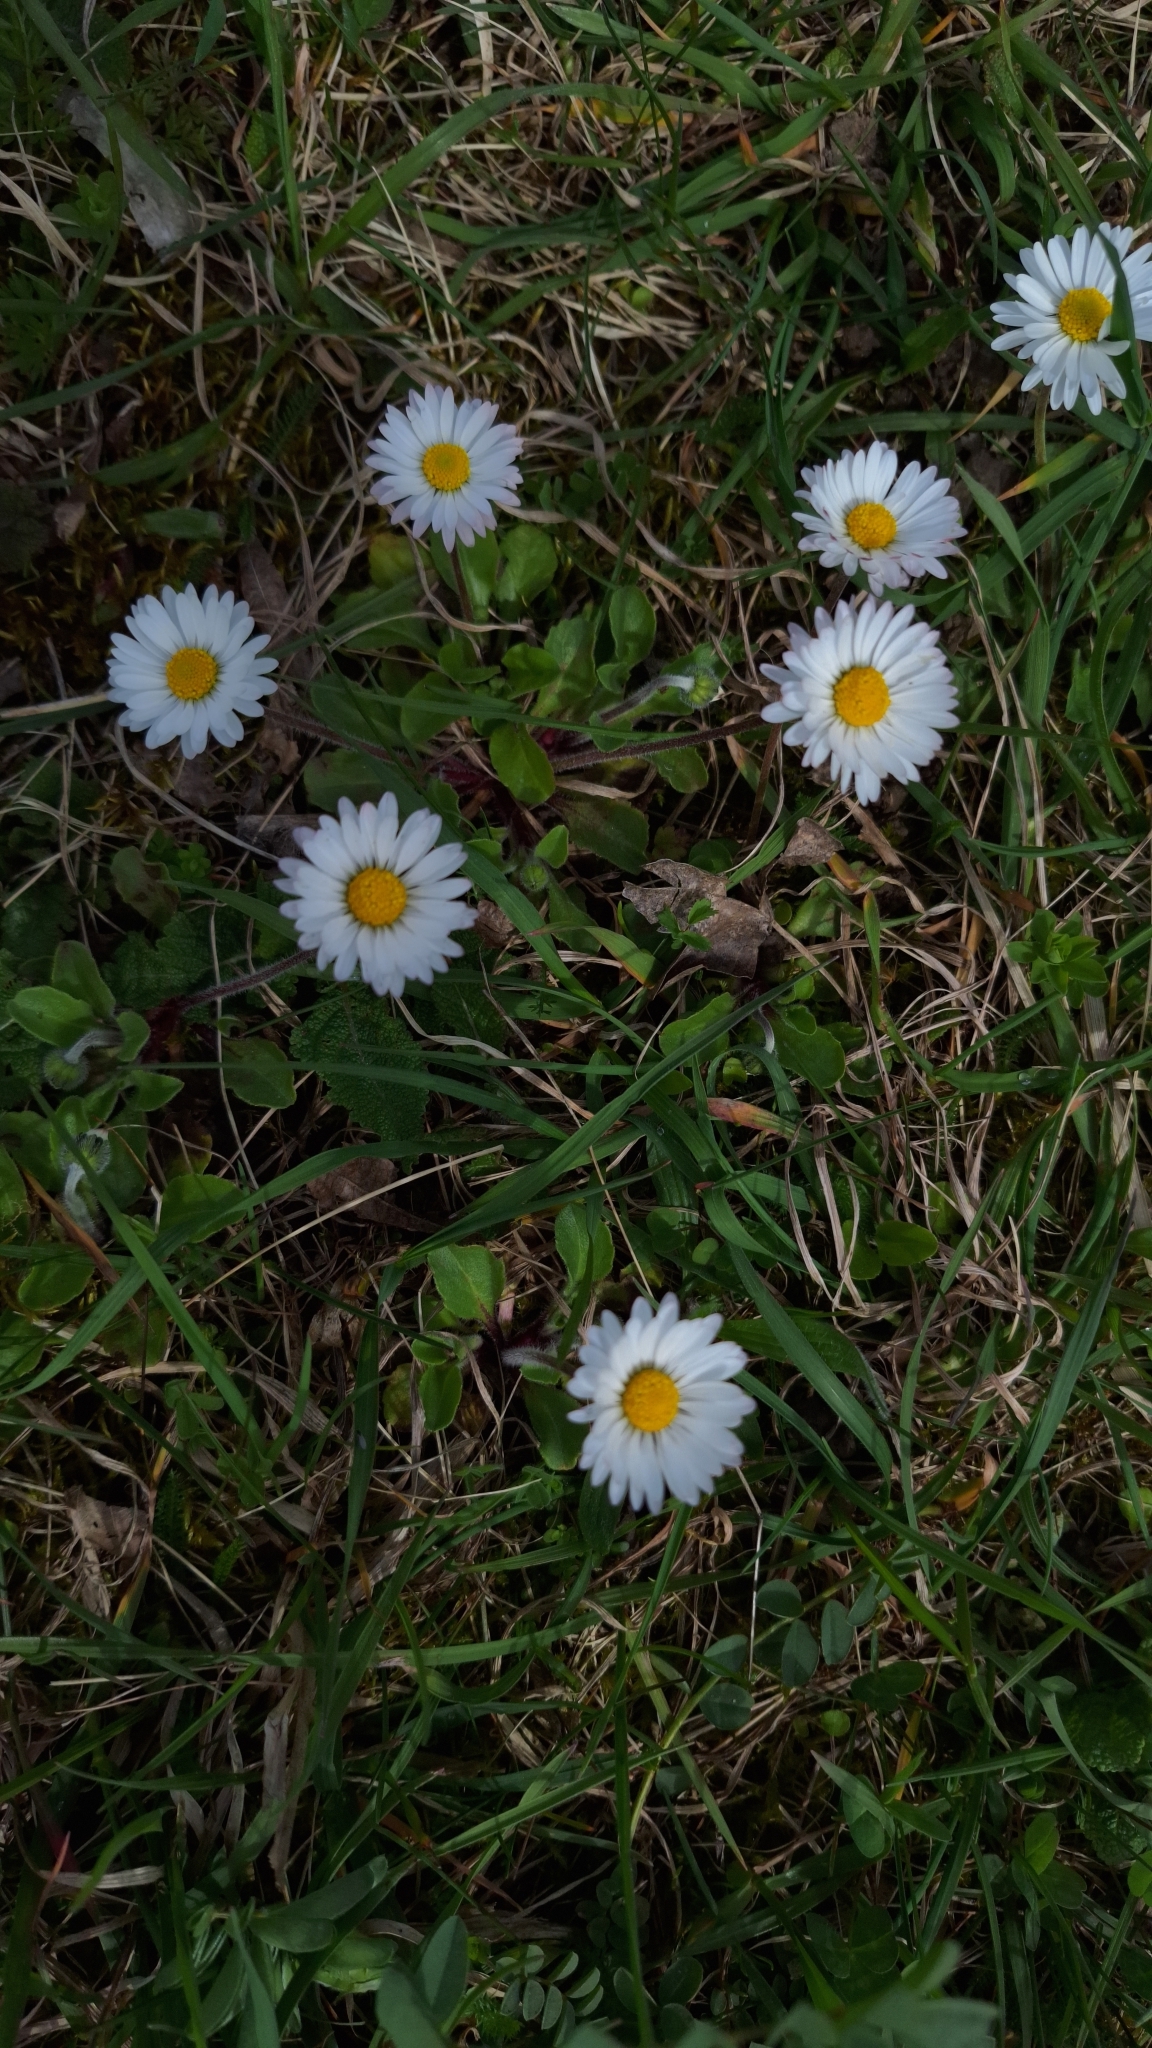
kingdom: Plantae
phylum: Tracheophyta
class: Magnoliopsida
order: Asterales
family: Asteraceae
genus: Bellis
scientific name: Bellis perennis
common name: Lawndaisy
